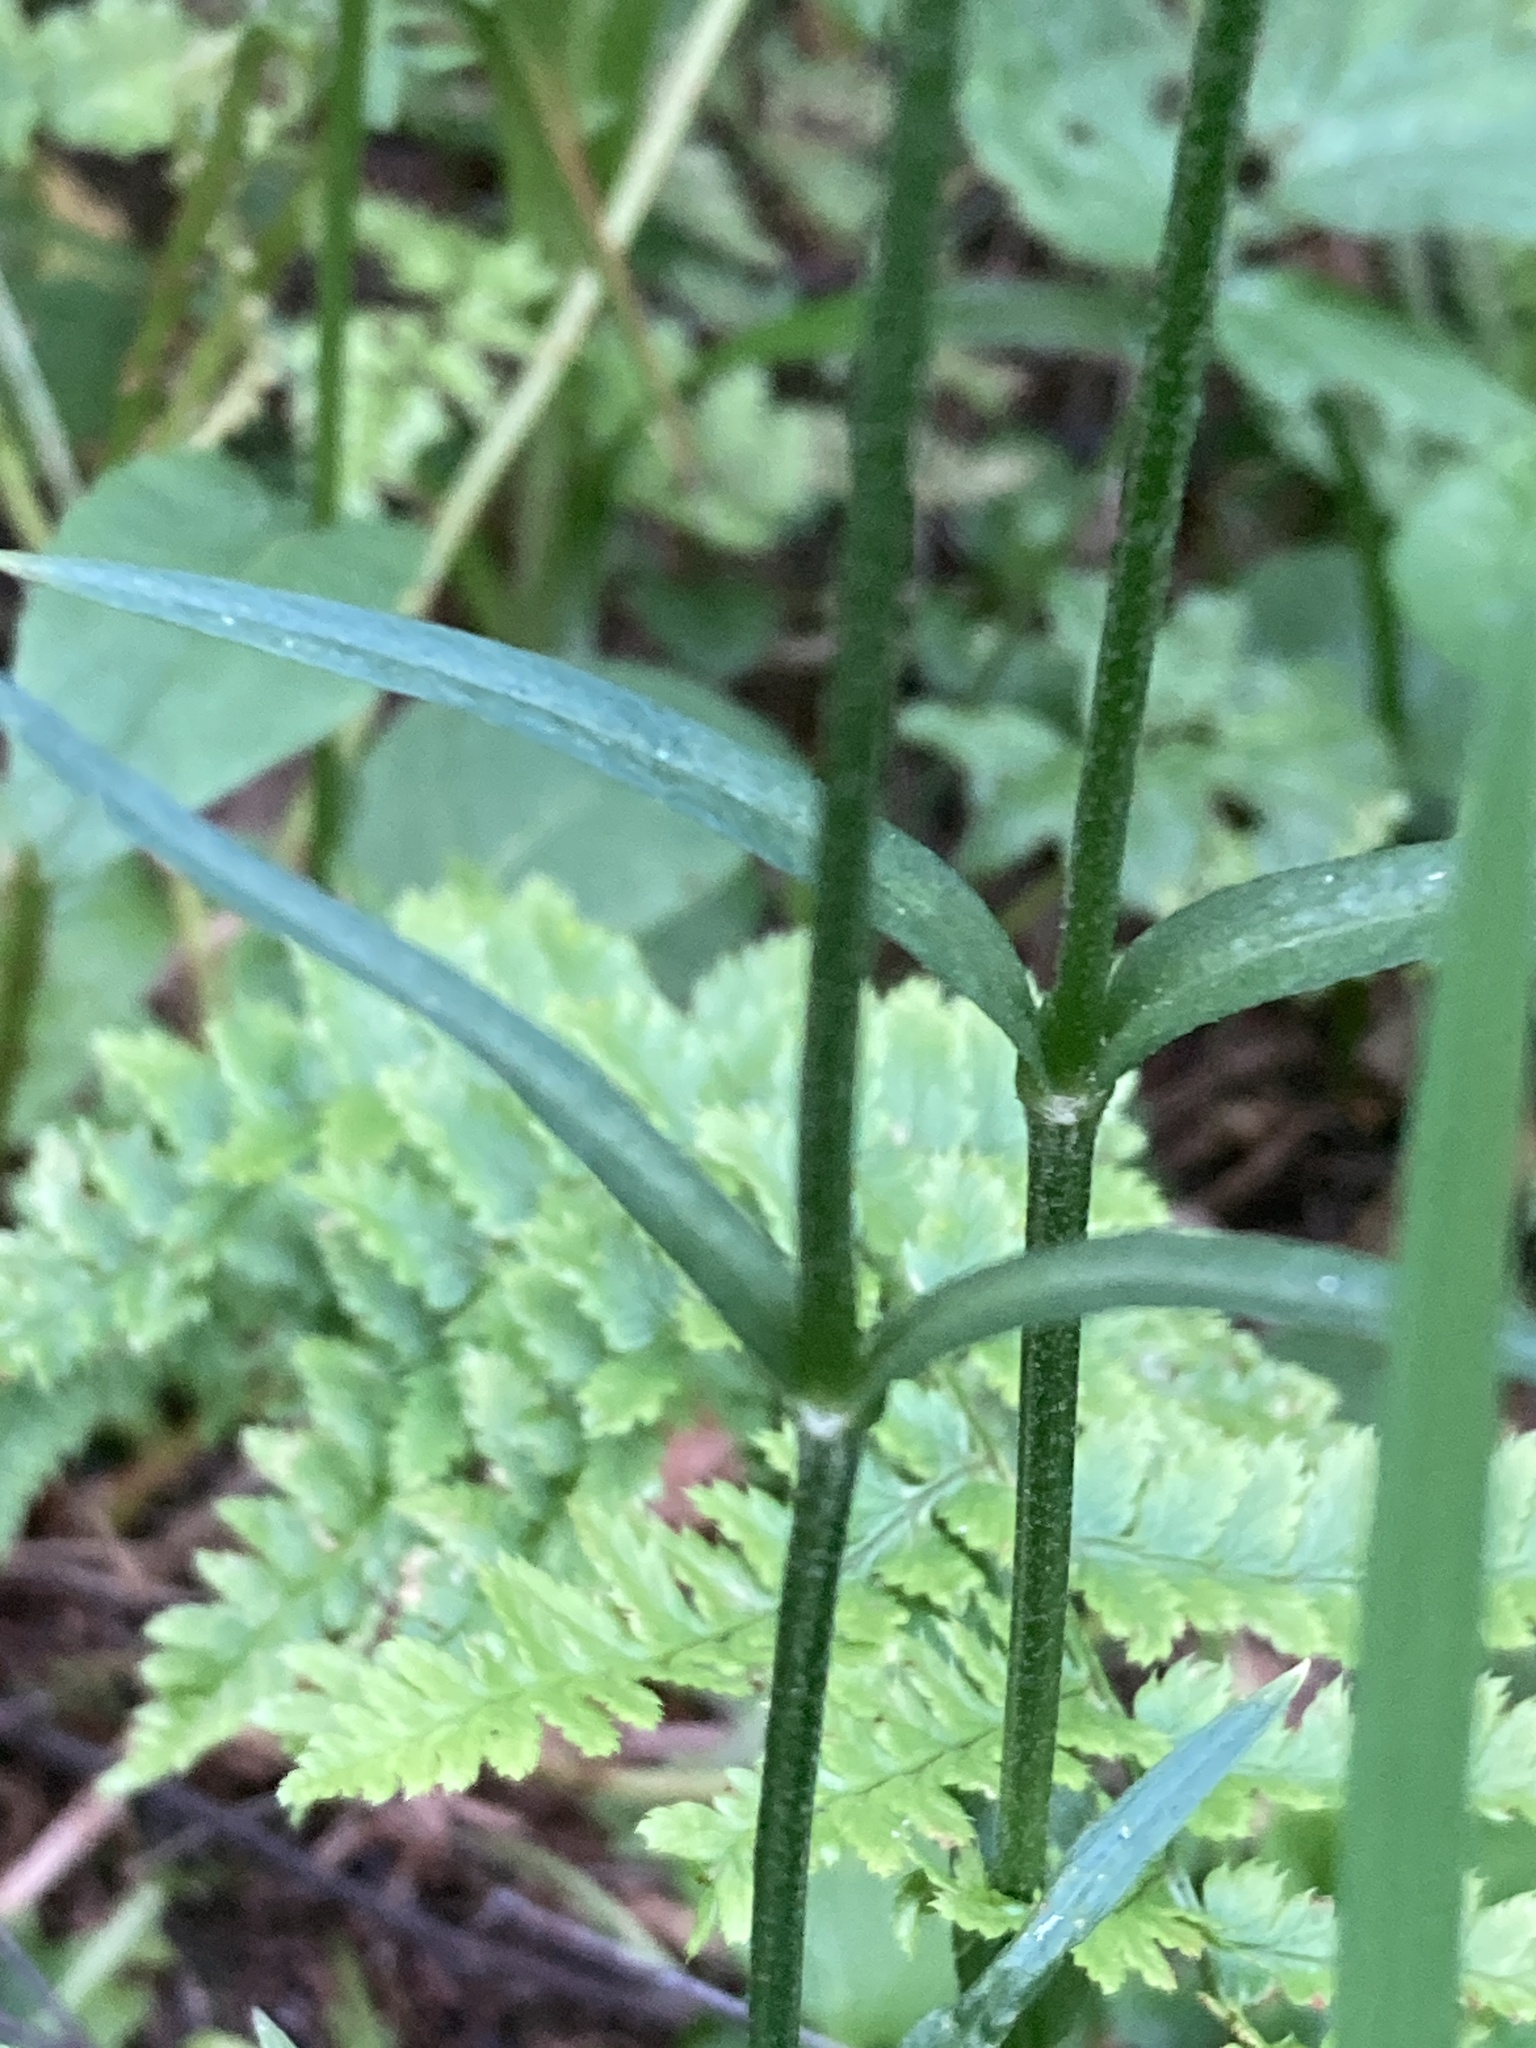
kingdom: Plantae
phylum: Tracheophyta
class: Magnoliopsida
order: Caryophyllales
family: Caryophyllaceae
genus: Silene
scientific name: Silene flos-cuculi
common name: Ragged-robin
